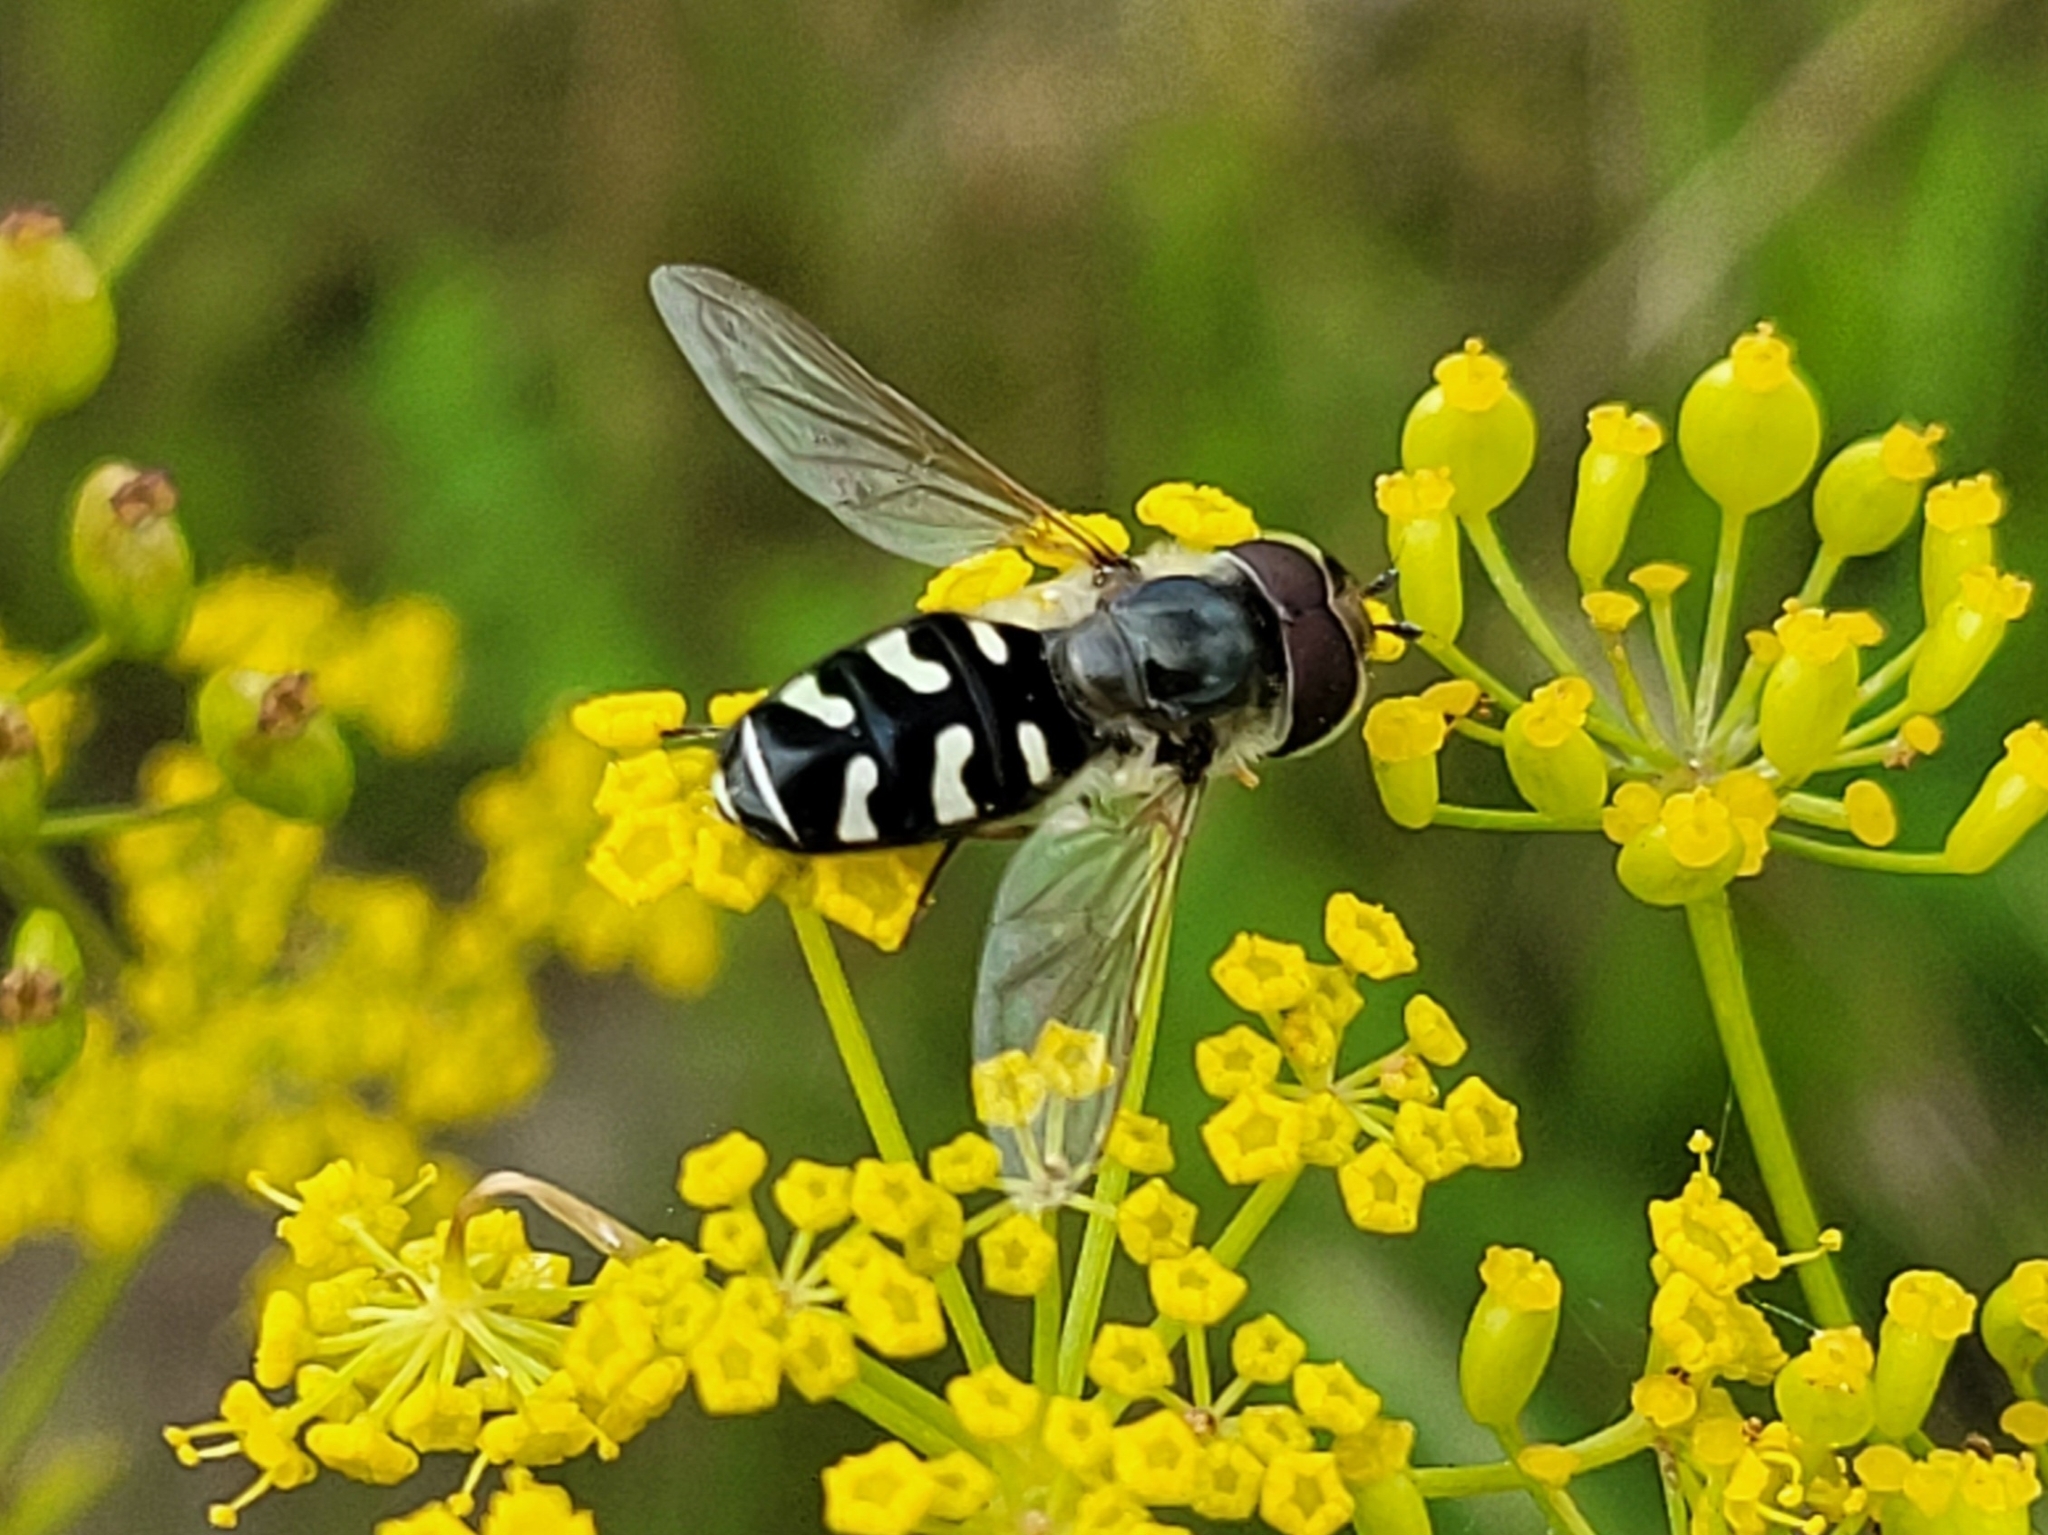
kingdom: Animalia
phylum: Arthropoda
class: Insecta
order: Diptera
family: Syrphidae
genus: Scaeva
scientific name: Scaeva pyrastri
